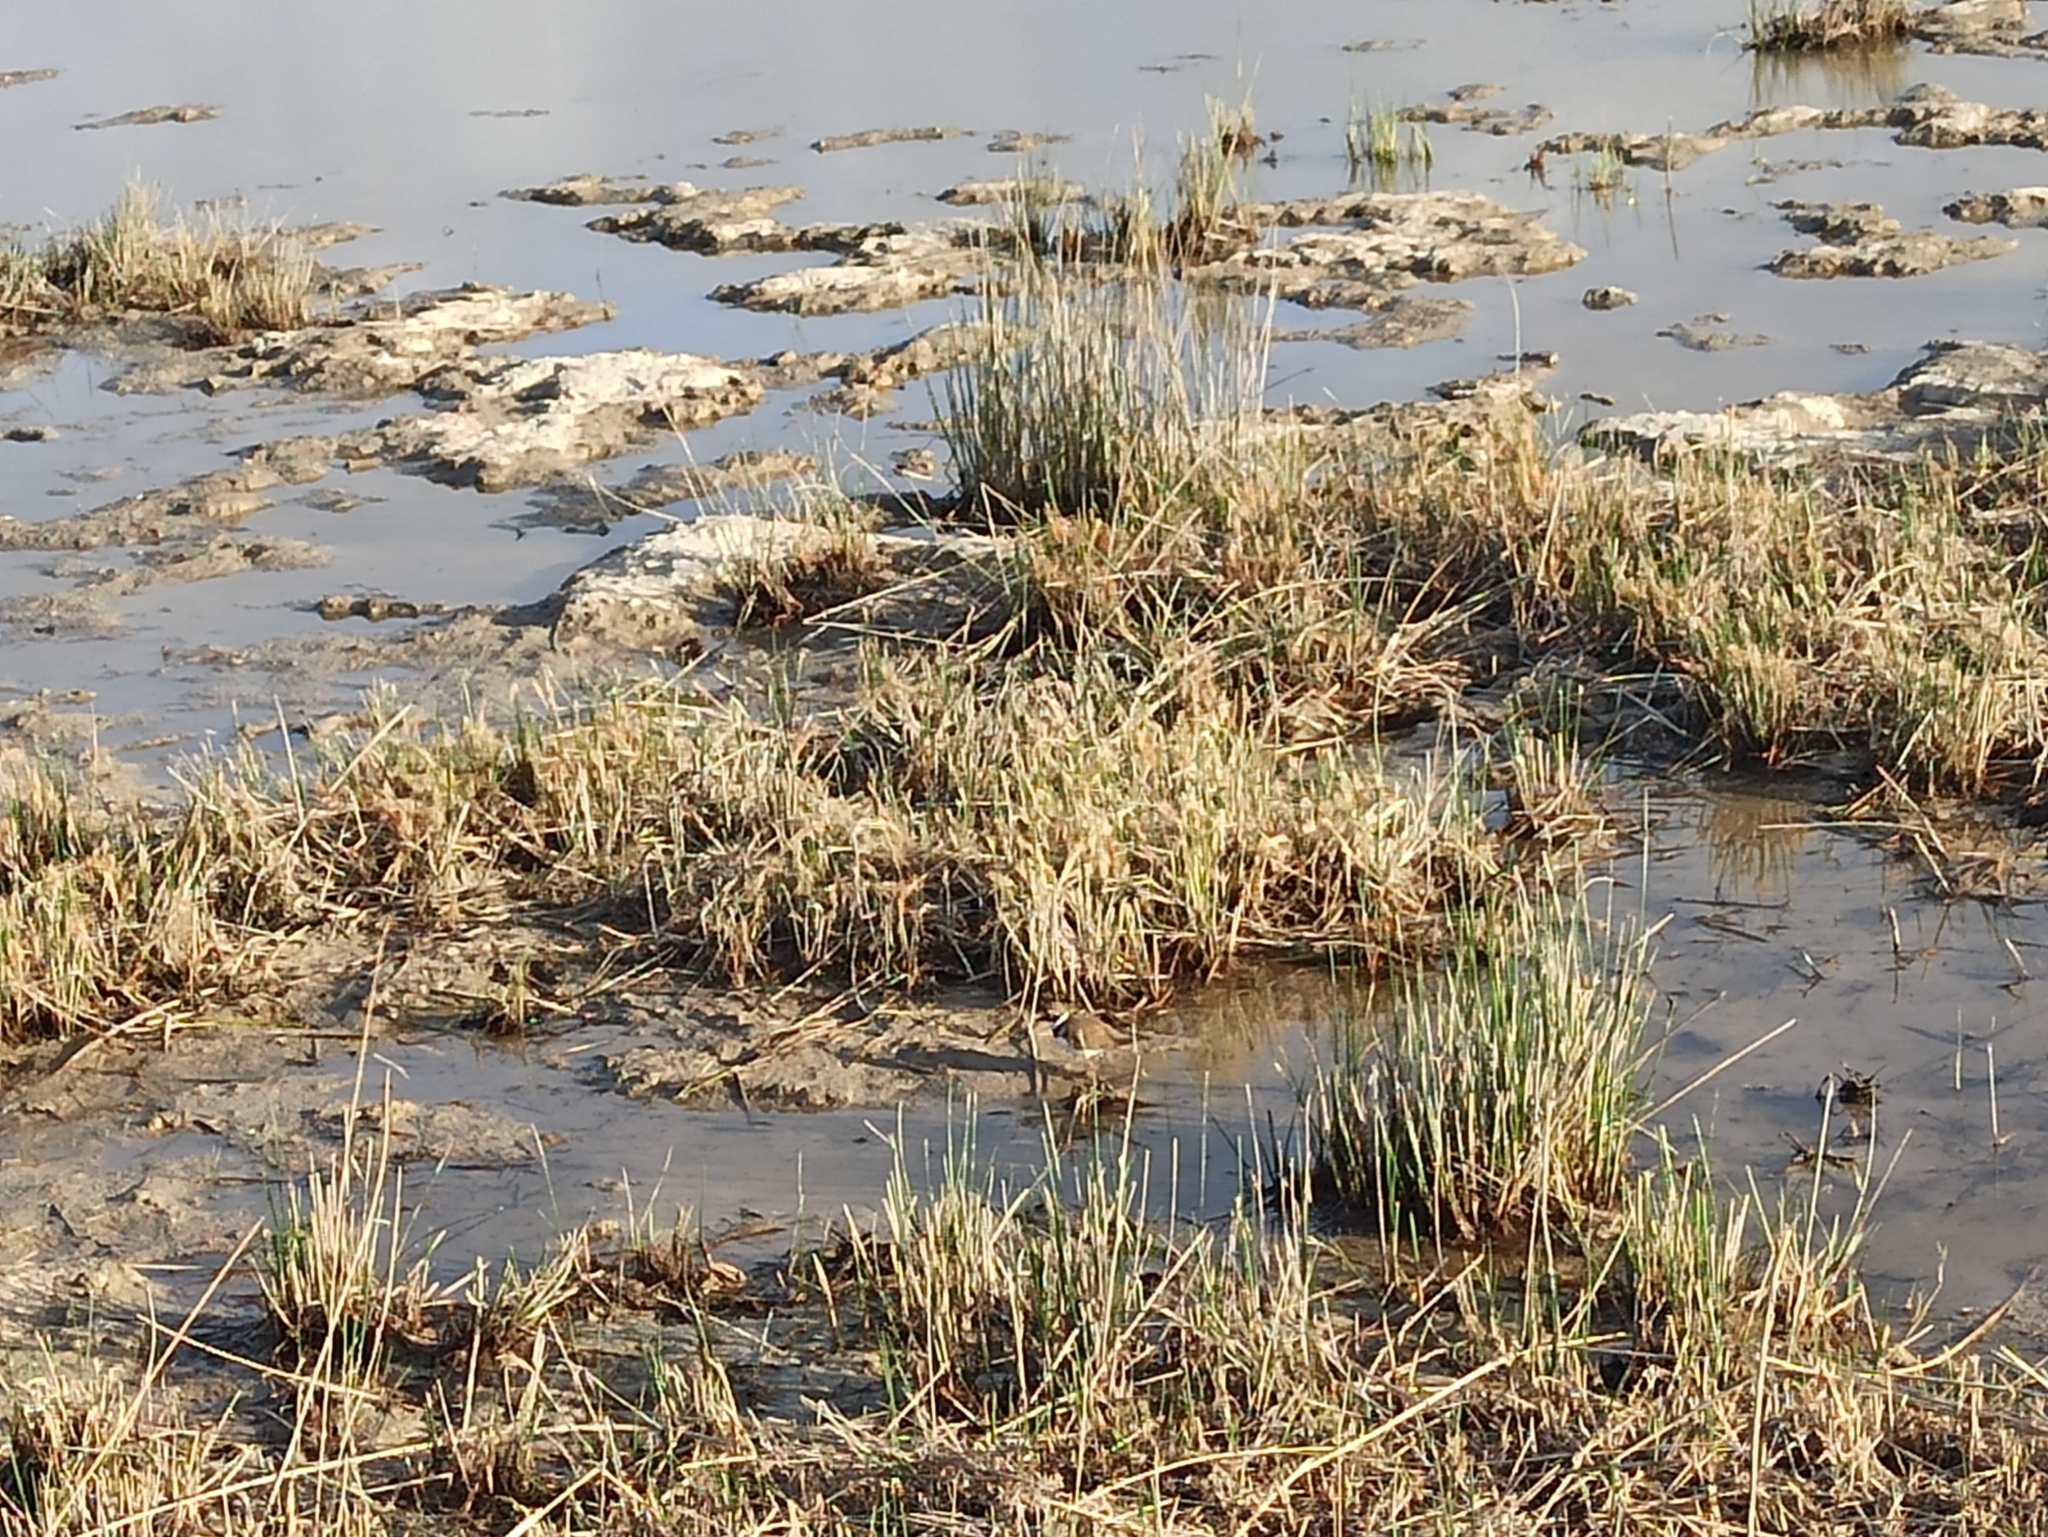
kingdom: Animalia
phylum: Chordata
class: Aves
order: Charadriiformes
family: Charadriidae
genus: Charadrius
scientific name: Charadrius dubius
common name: Little ringed plover
